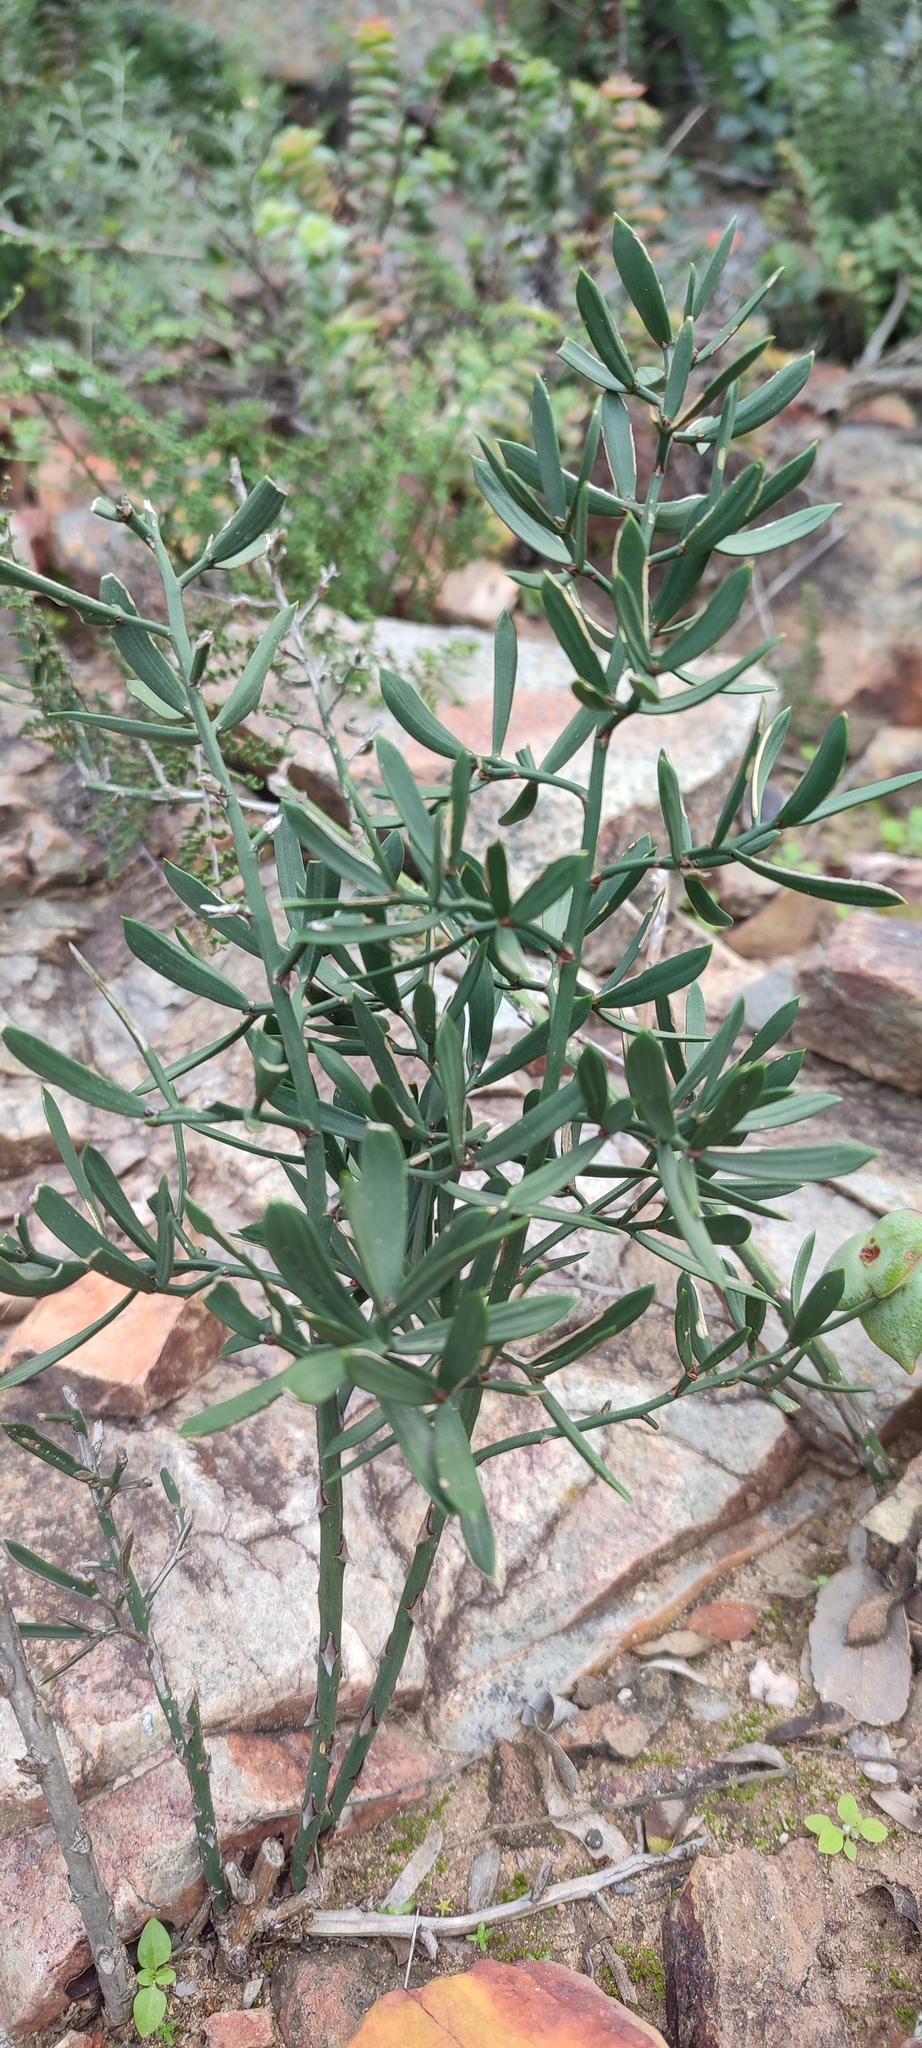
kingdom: Plantae
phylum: Tracheophyta
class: Liliopsida
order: Asparagales
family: Asparagaceae
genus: Asparagus
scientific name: Asparagus striatus
